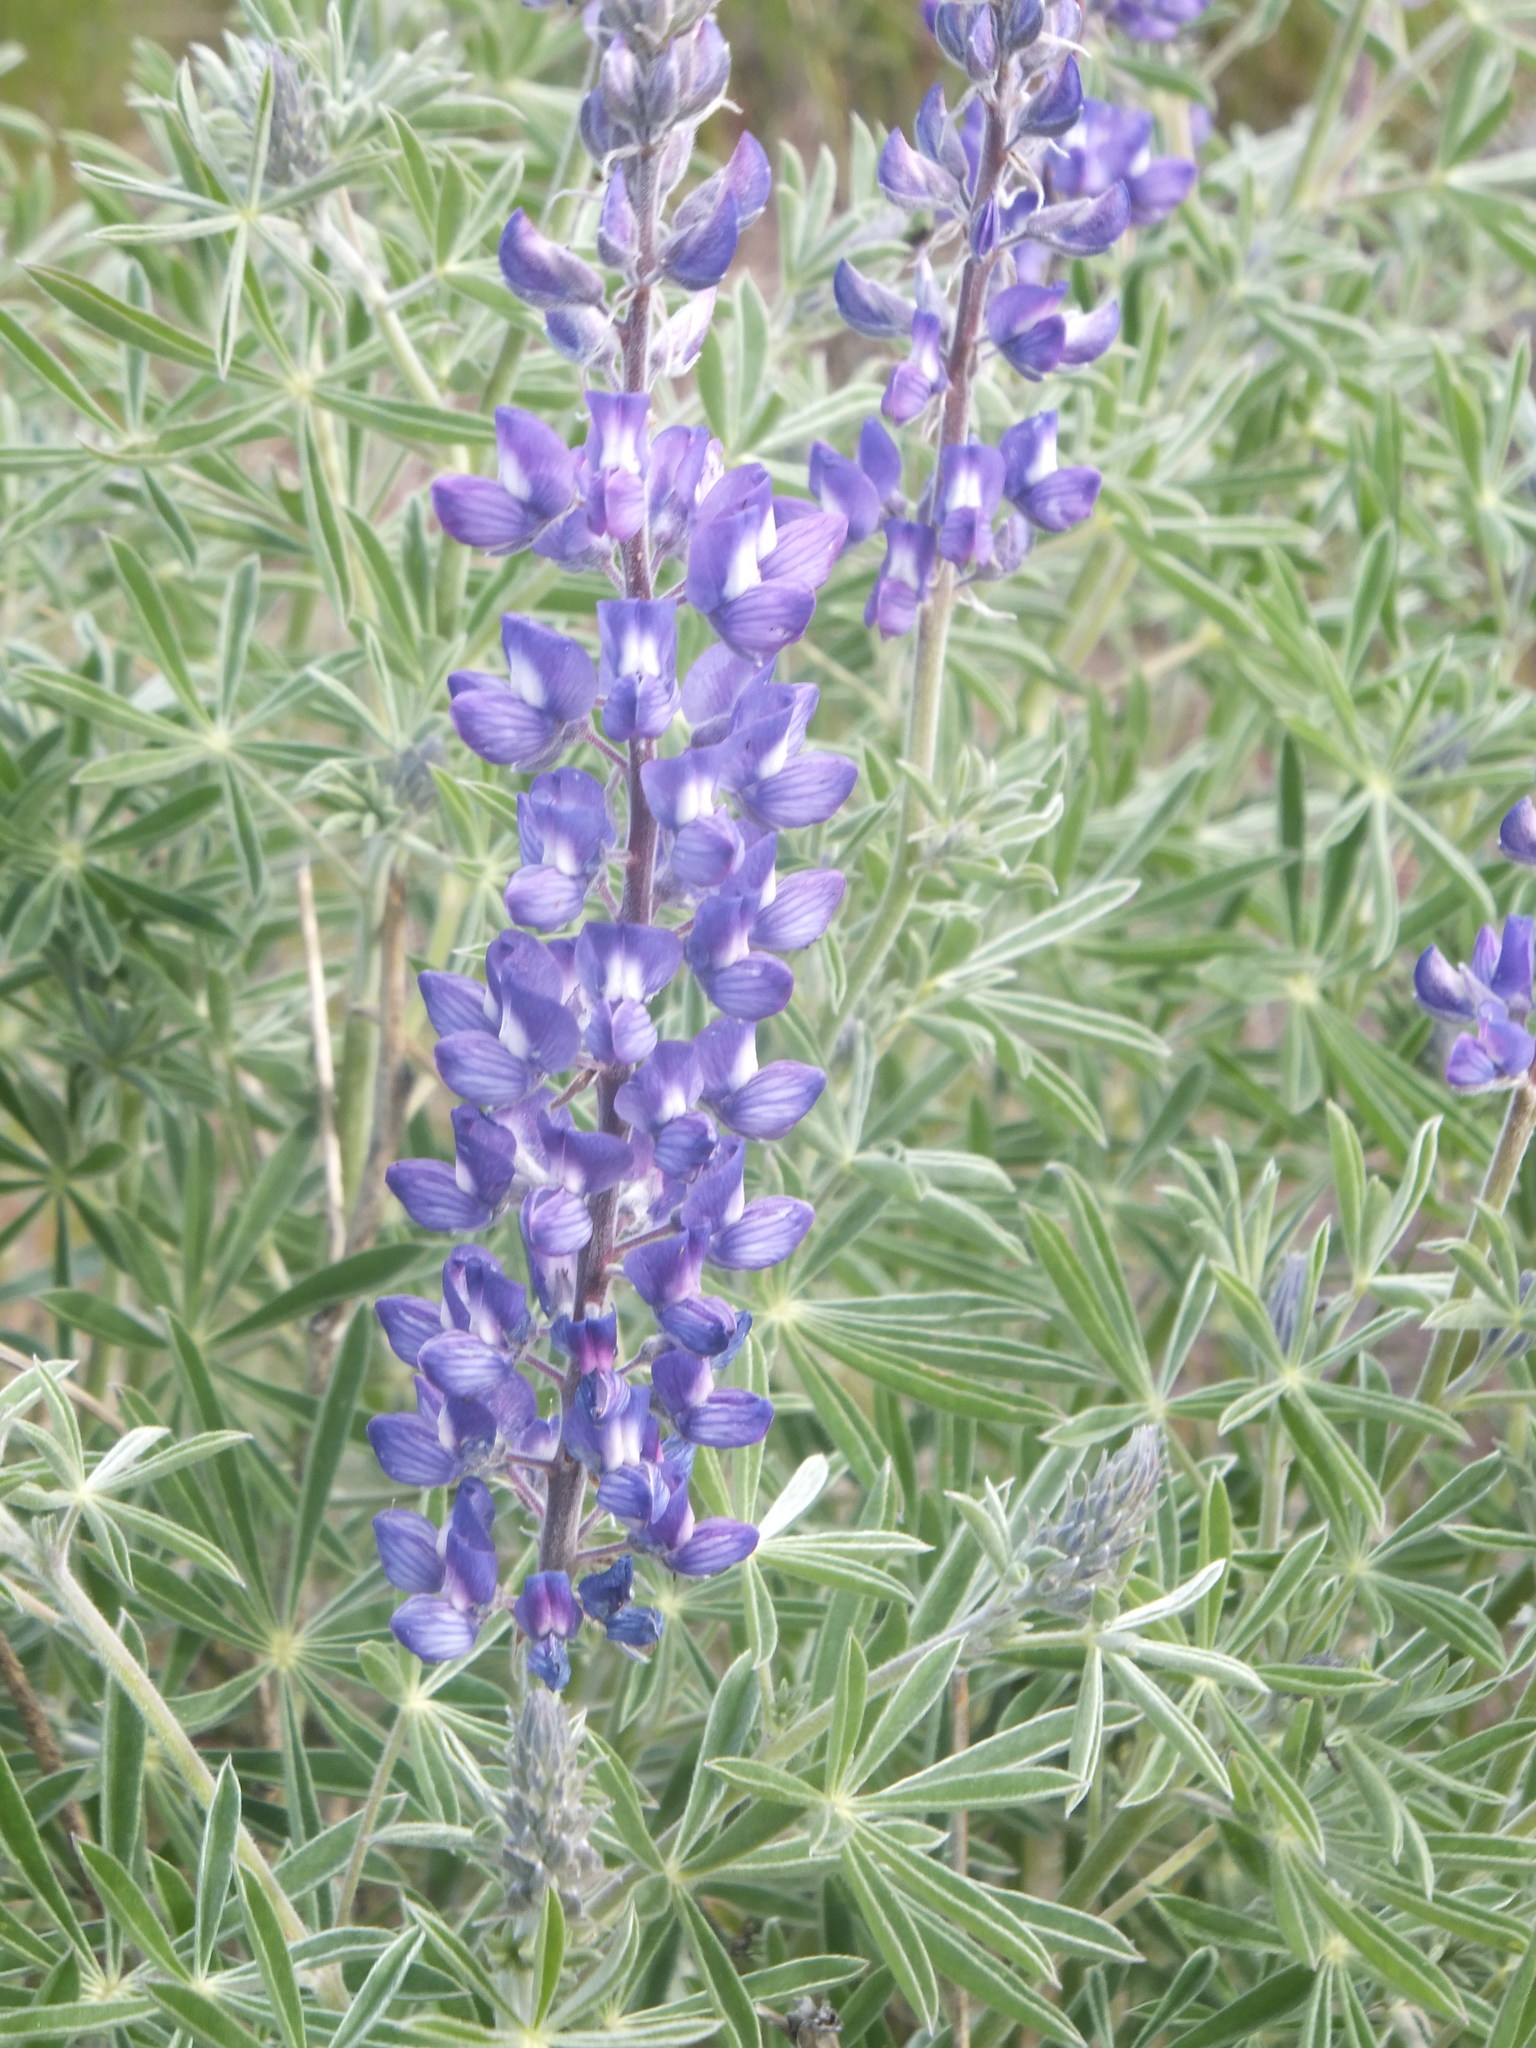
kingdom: Plantae
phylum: Tracheophyta
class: Magnoliopsida
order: Fabales
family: Fabaceae
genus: Lupinus
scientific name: Lupinus sericeus
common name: Silky lupine
